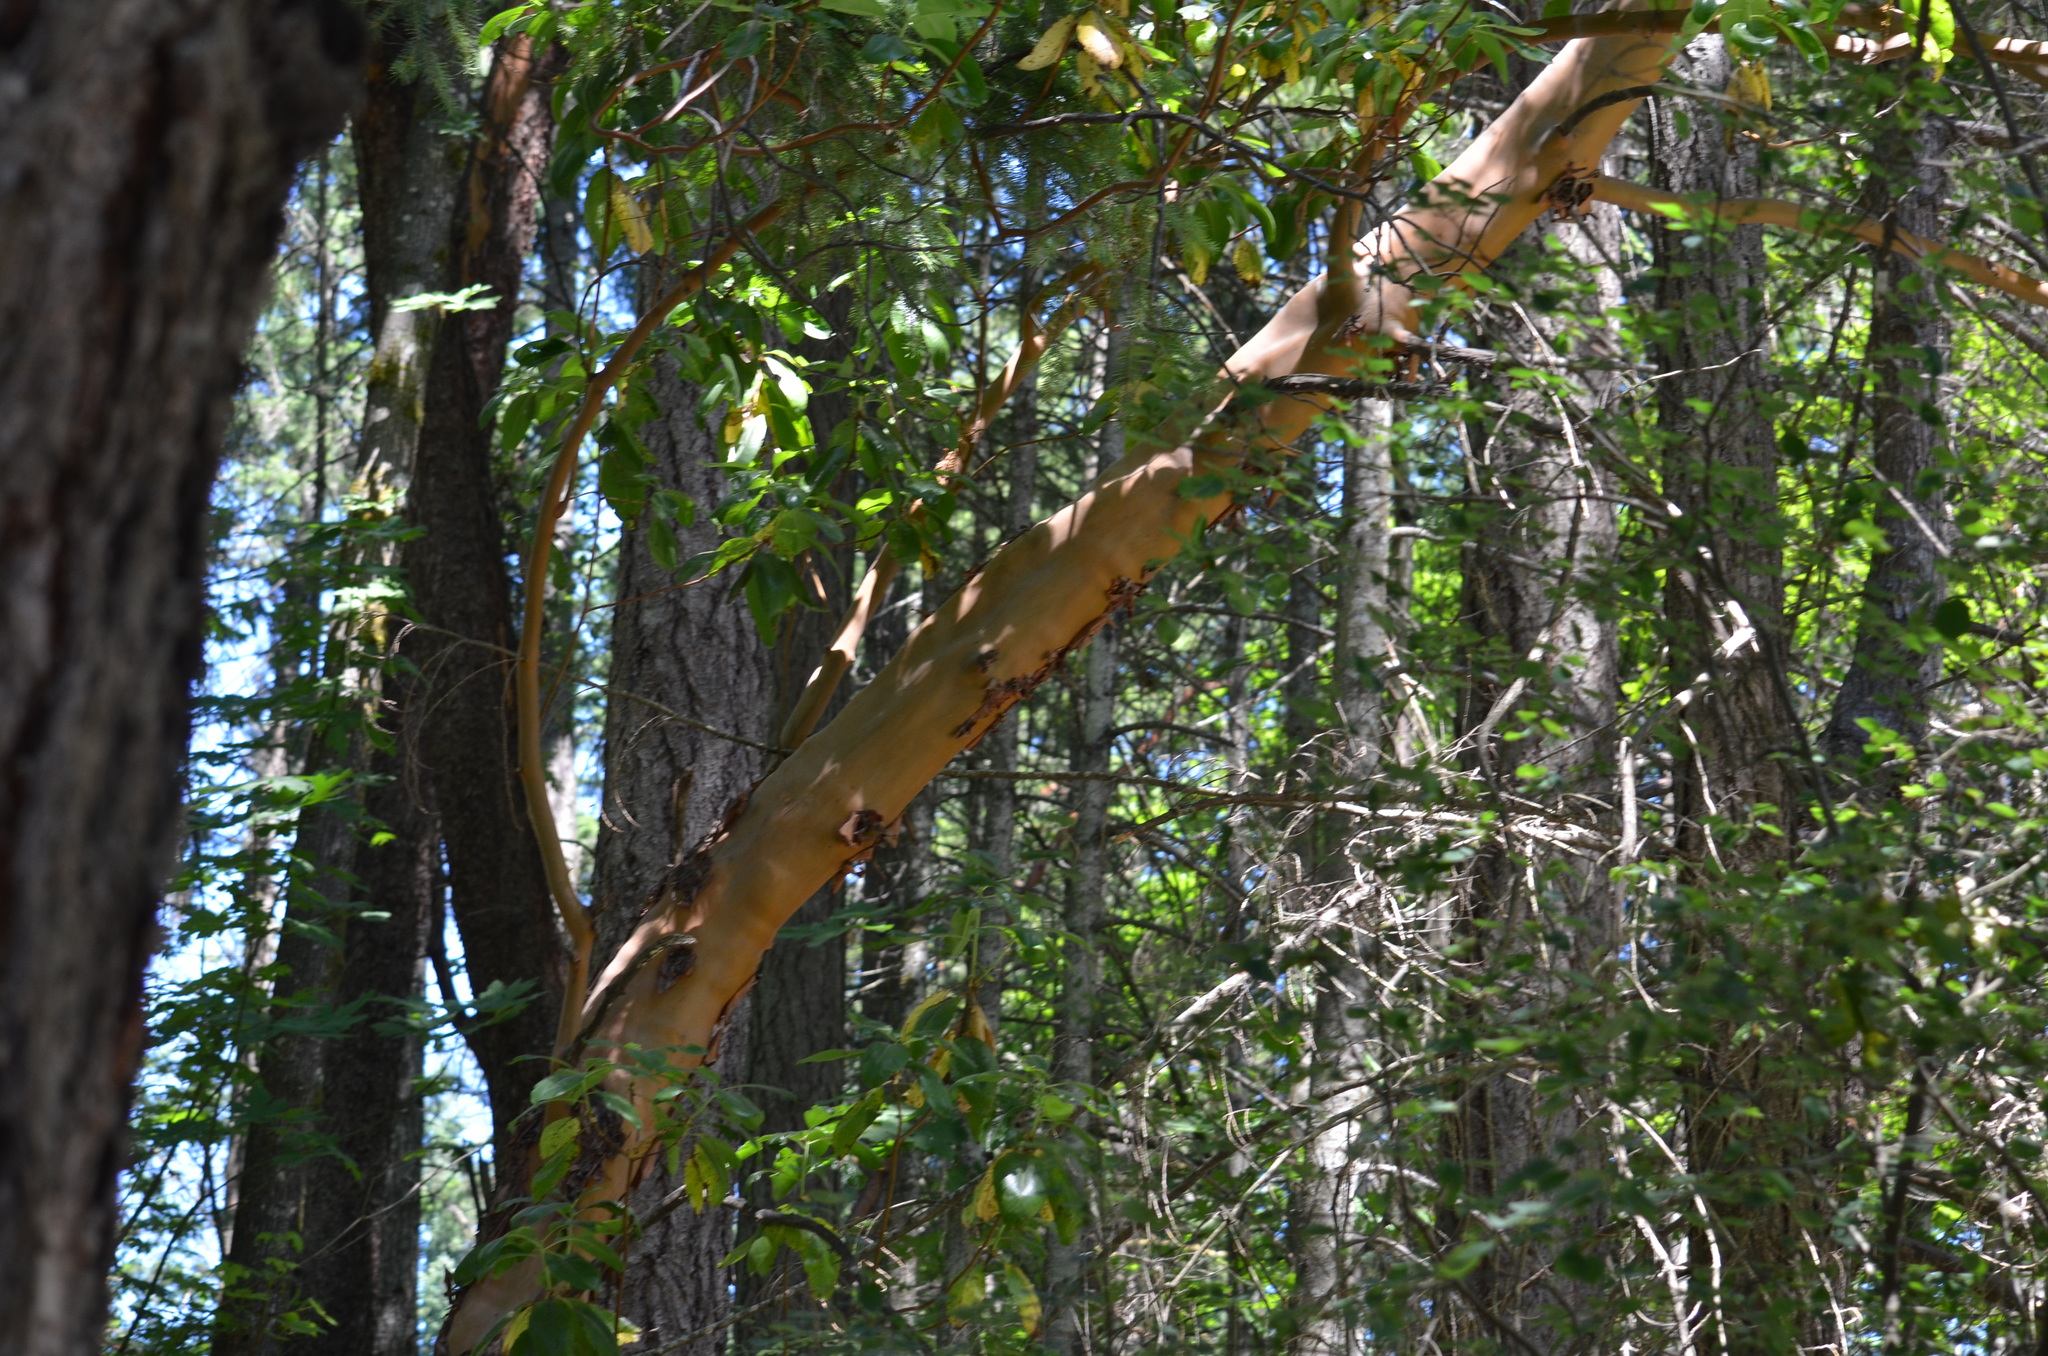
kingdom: Plantae
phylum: Tracheophyta
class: Magnoliopsida
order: Ericales
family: Ericaceae
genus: Arbutus
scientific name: Arbutus menziesii
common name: Pacific madrone
